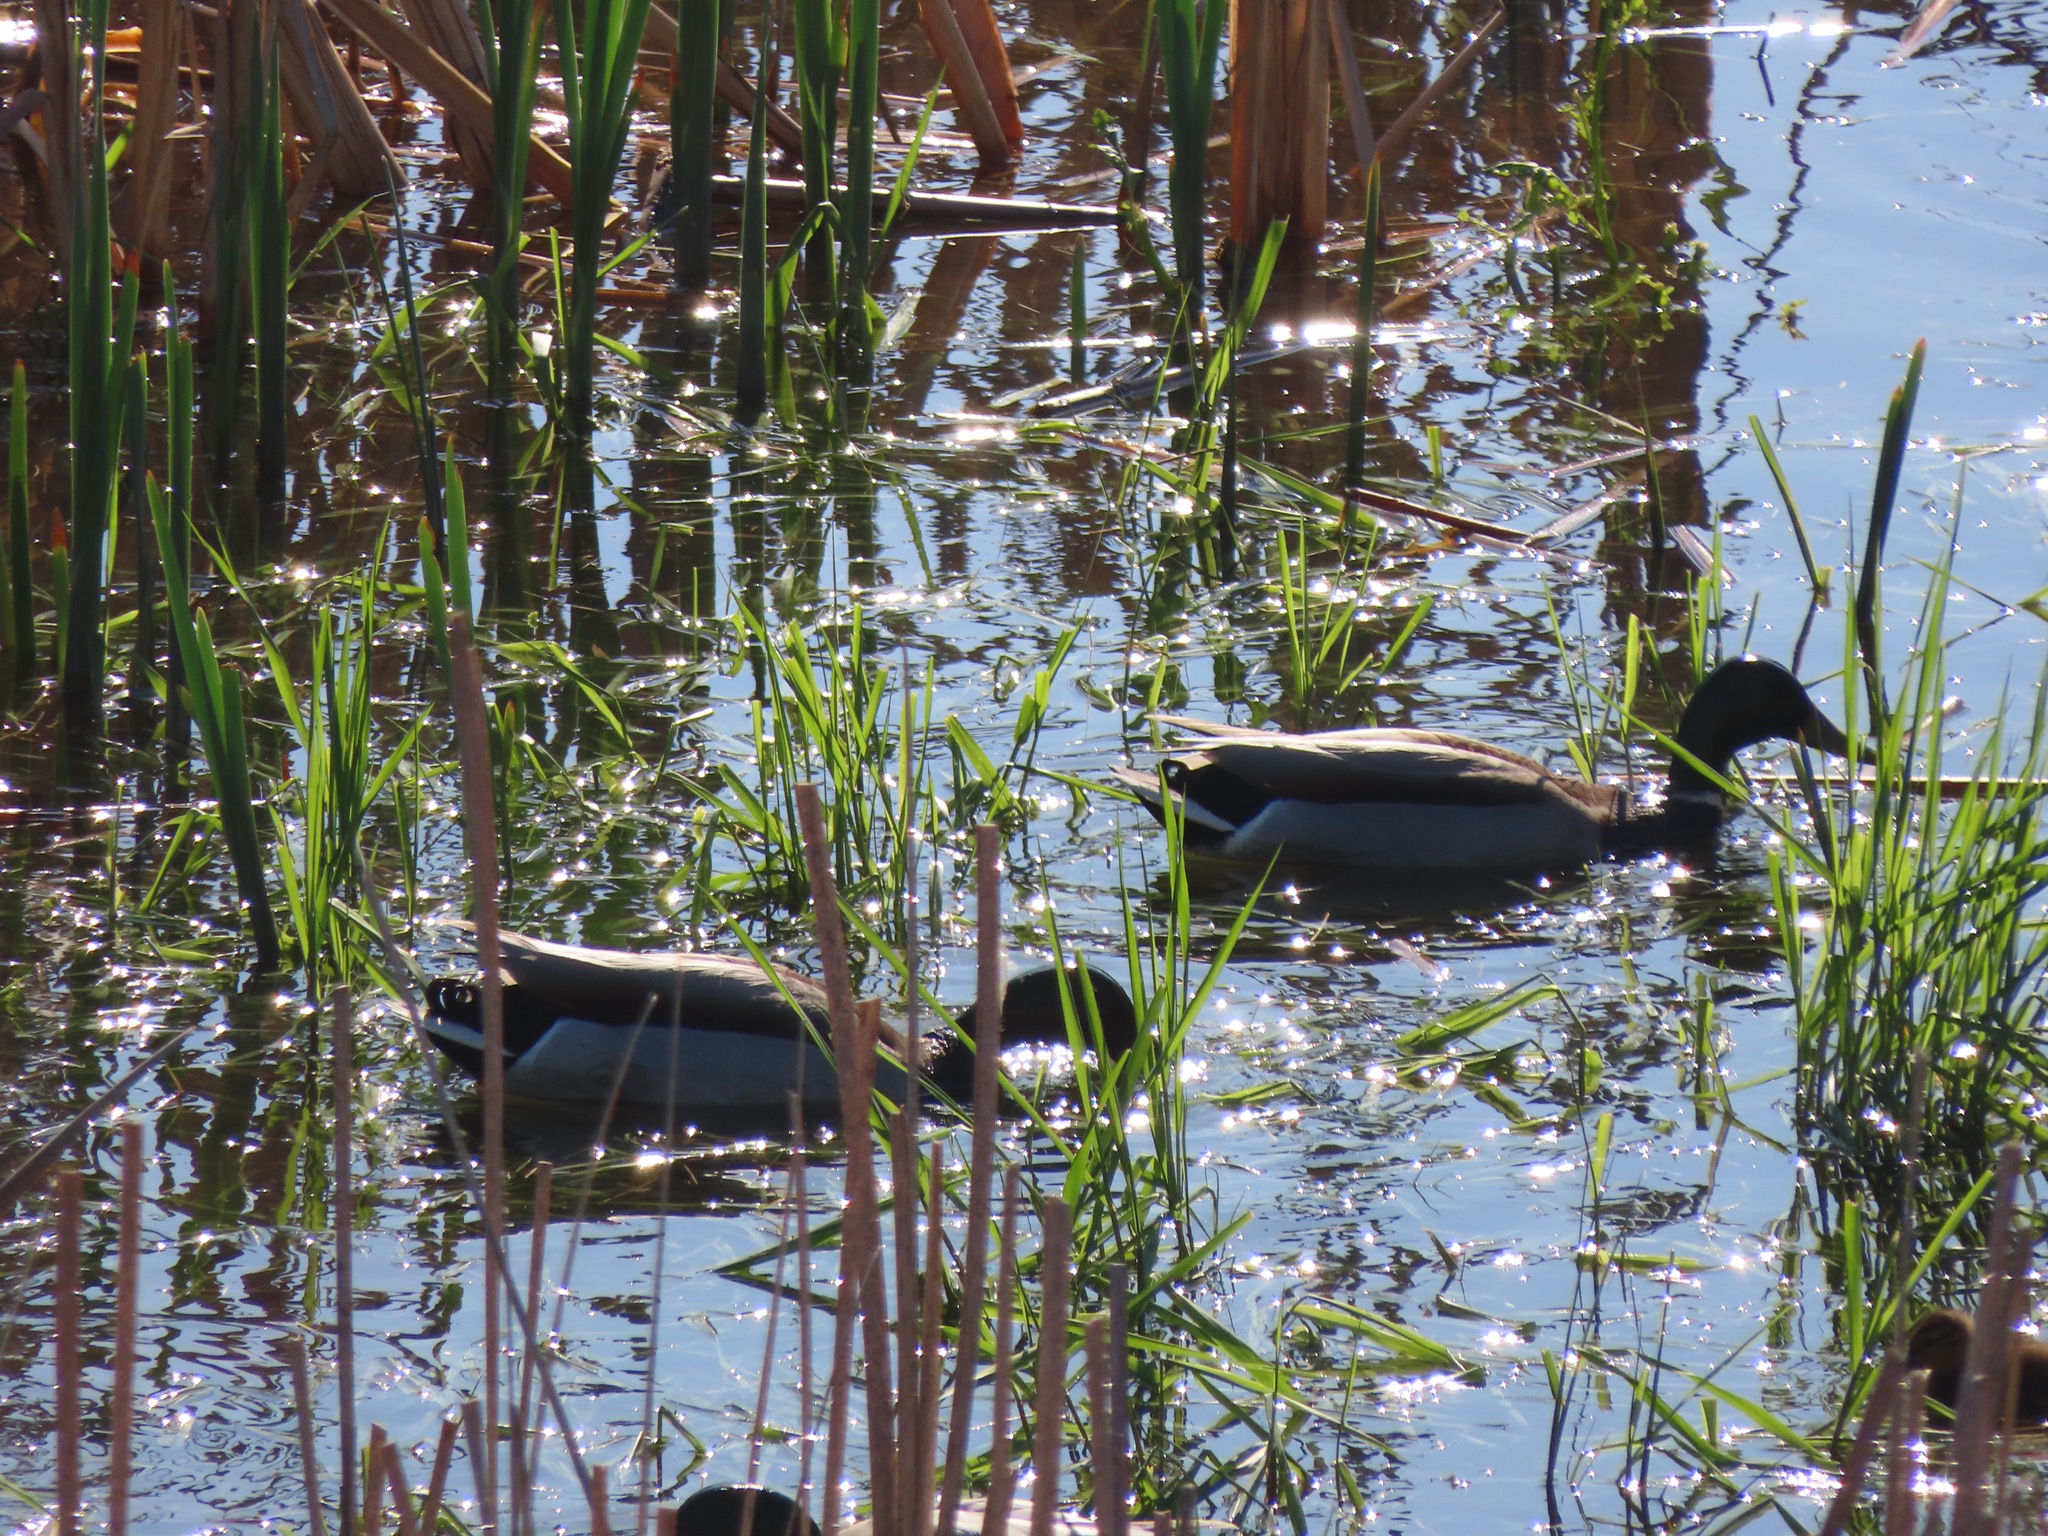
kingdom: Animalia
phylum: Chordata
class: Aves
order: Anseriformes
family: Anatidae
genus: Anas
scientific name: Anas platyrhynchos
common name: Mallard
